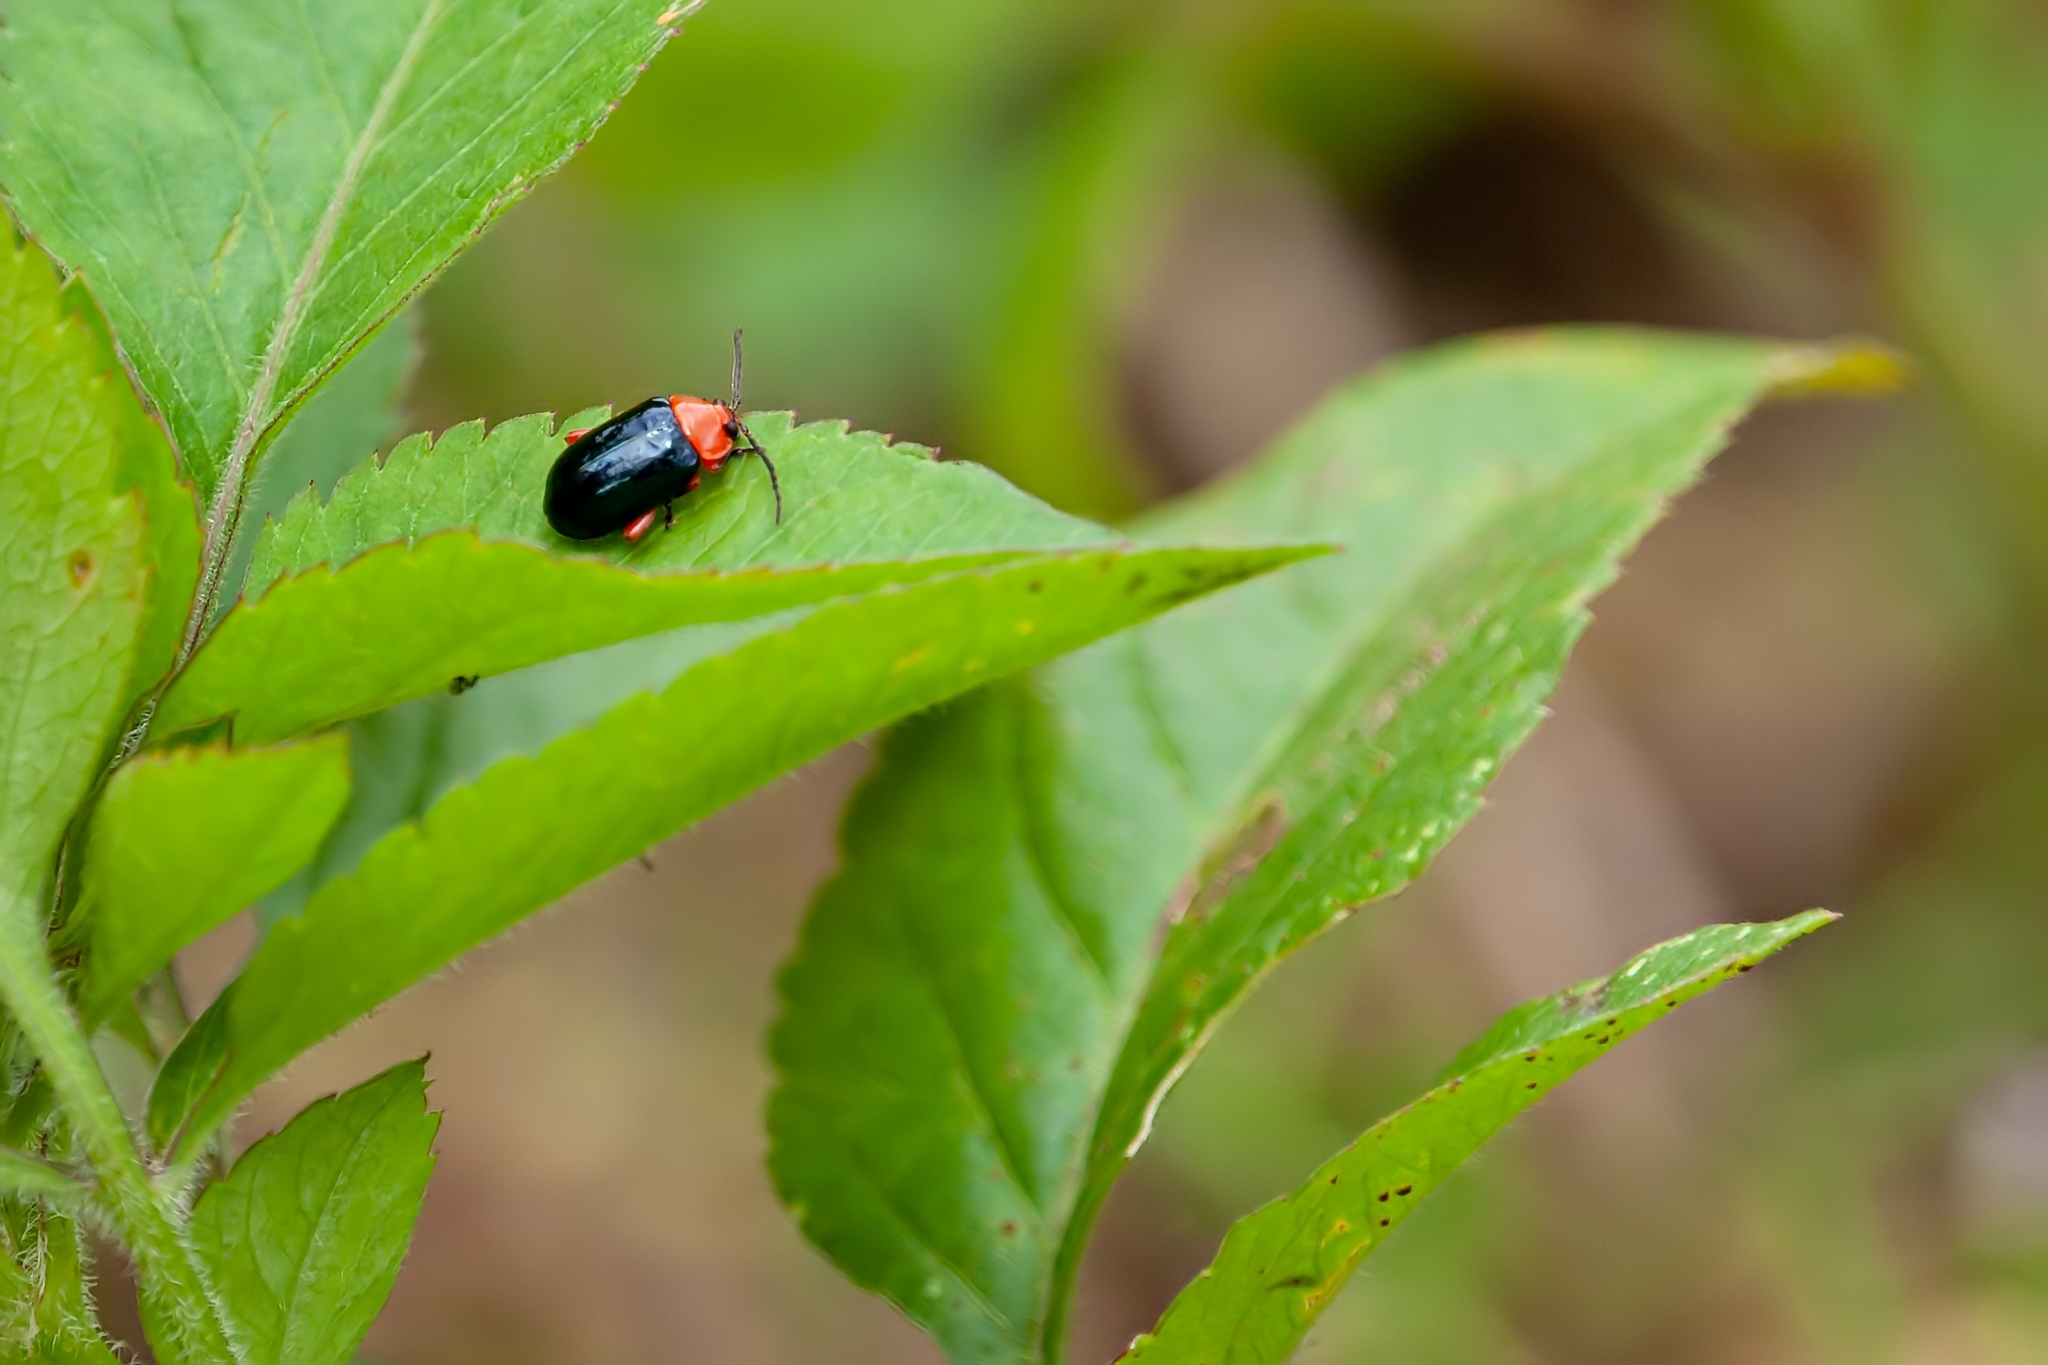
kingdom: Animalia
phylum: Arthropoda
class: Insecta
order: Coleoptera
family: Chrysomelidae
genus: Asphaera
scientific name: Asphaera lustrans
